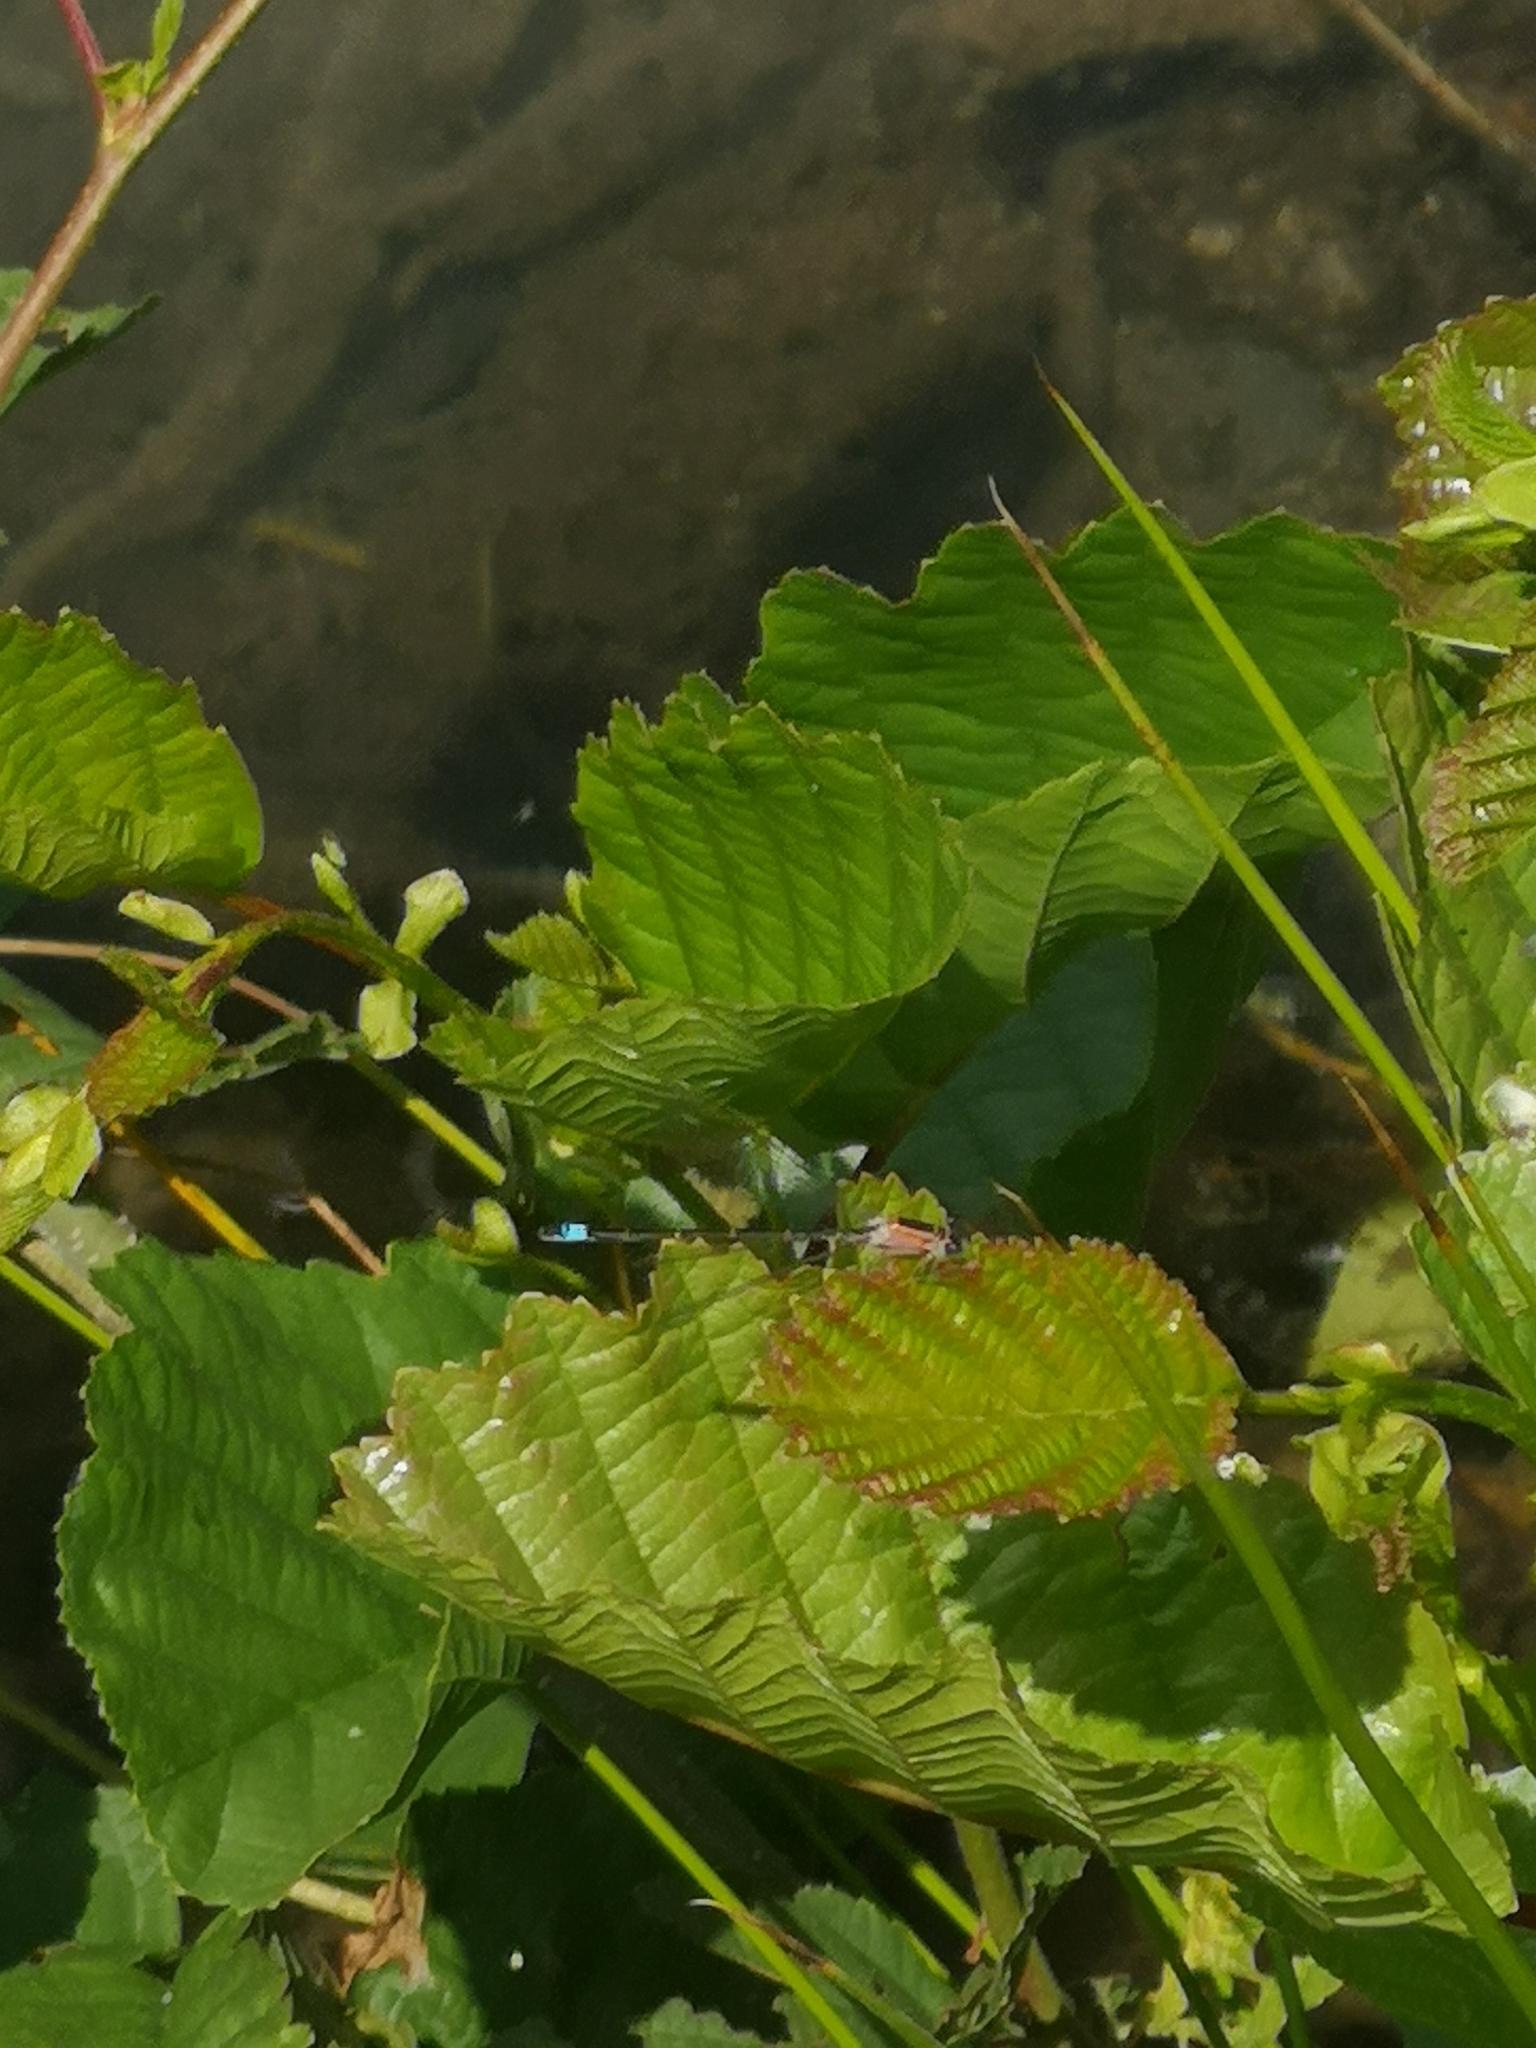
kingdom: Animalia
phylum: Arthropoda
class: Insecta
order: Odonata
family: Coenagrionidae
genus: Ischnura
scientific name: Ischnura elegans
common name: Blue-tailed damselfly
